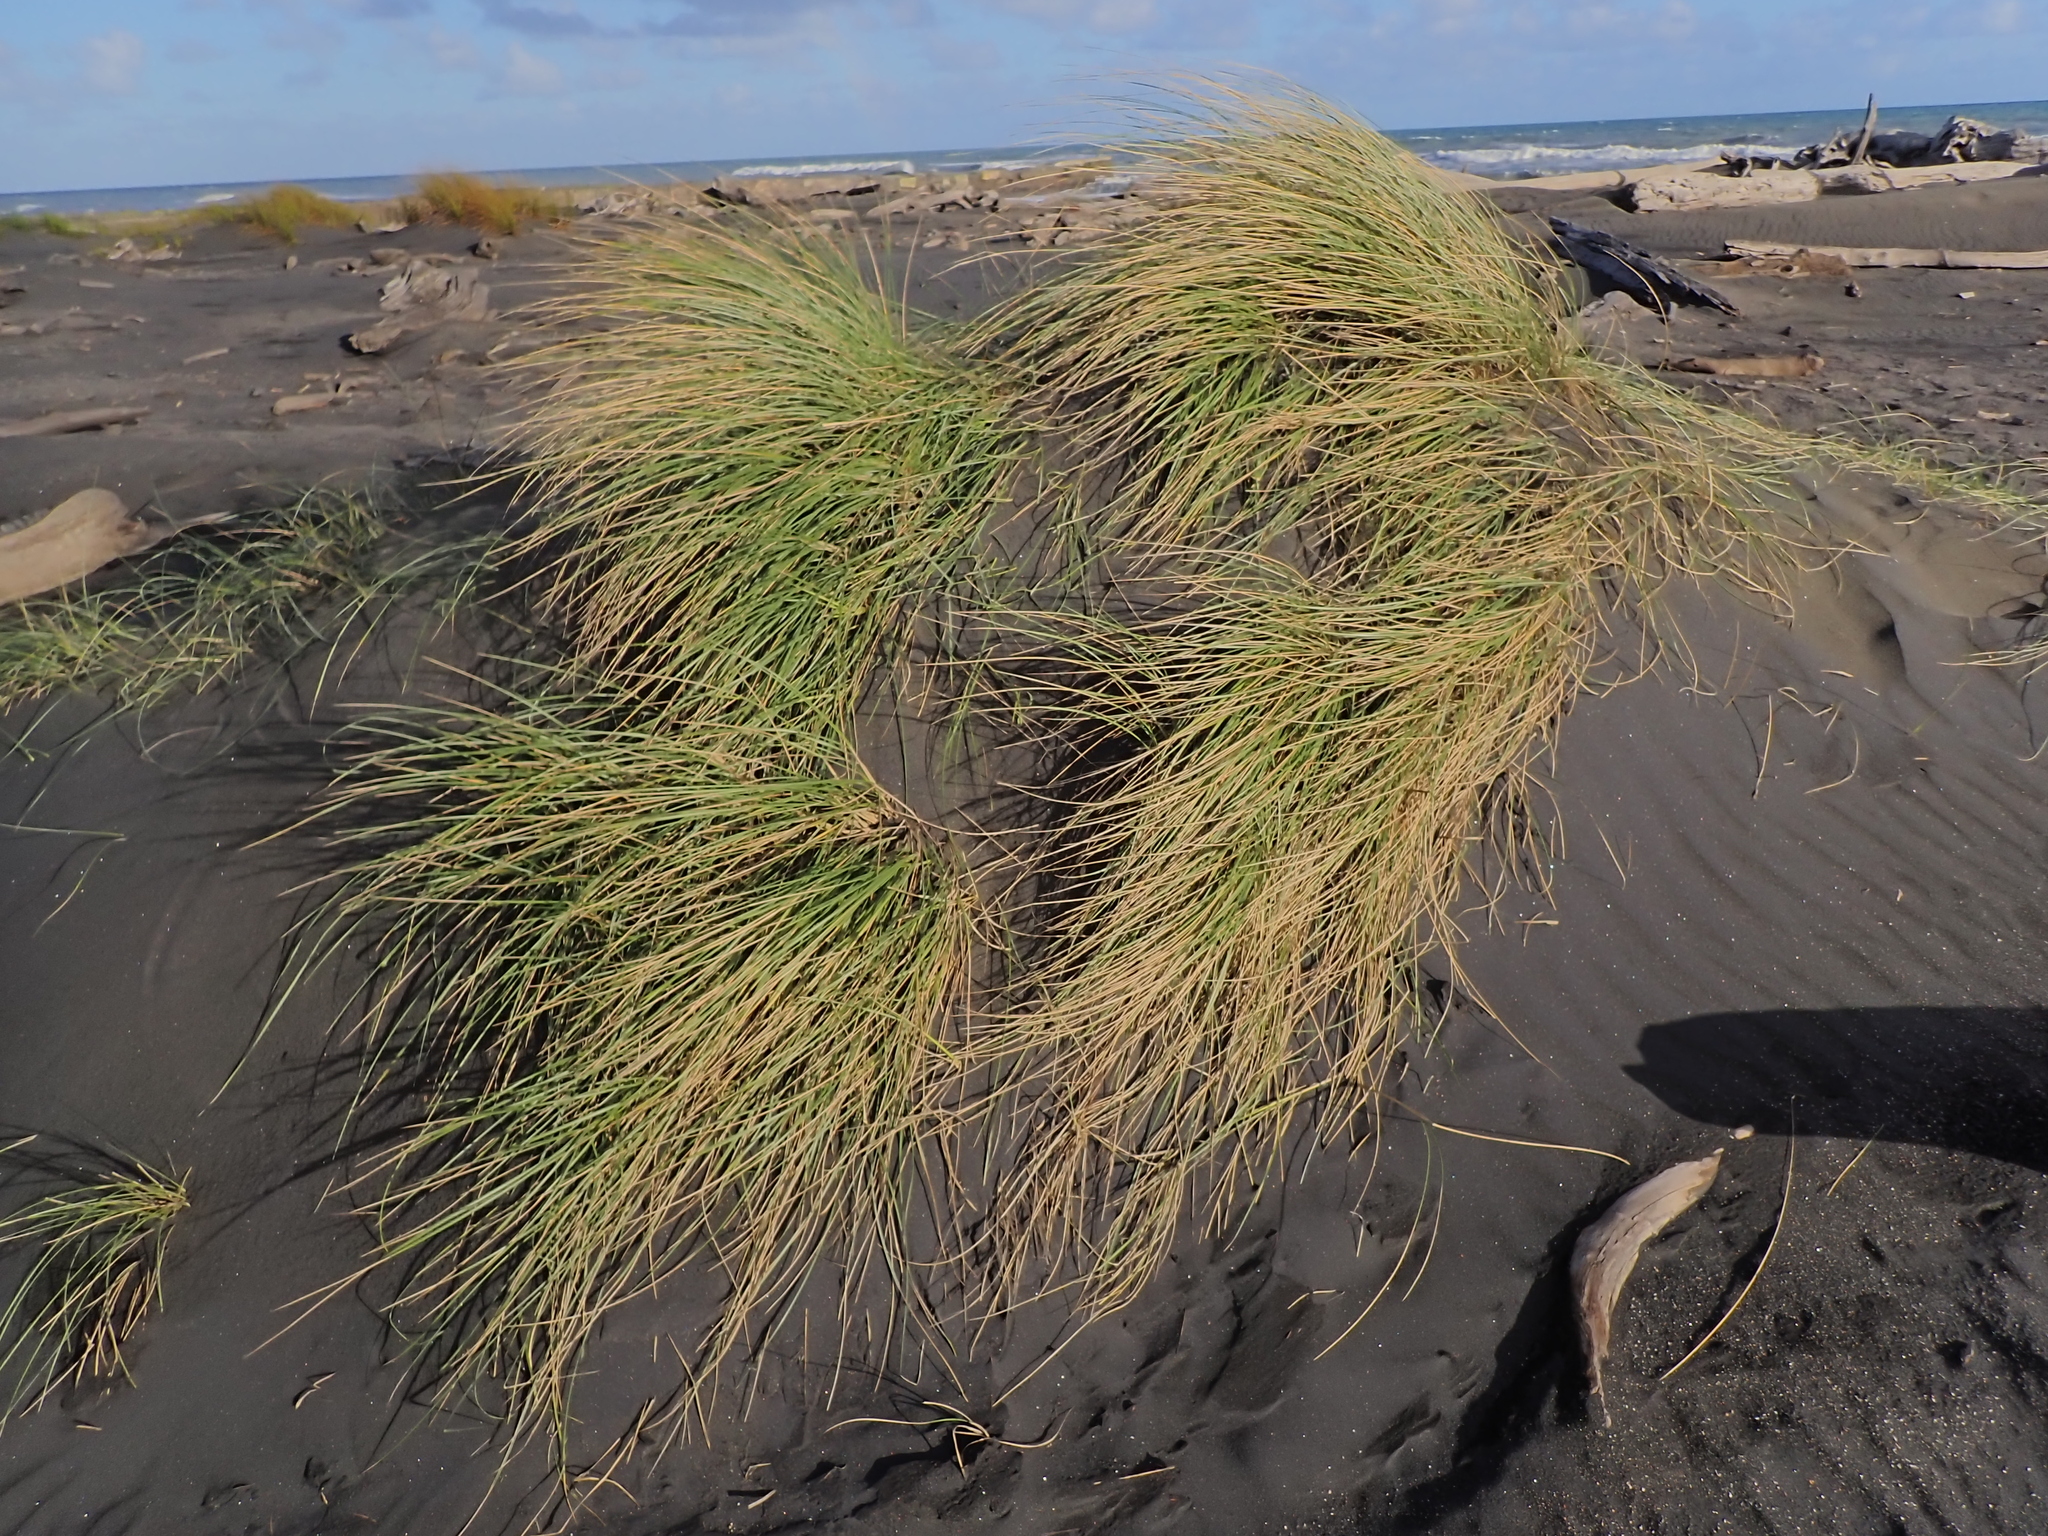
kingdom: Plantae
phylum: Tracheophyta
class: Liliopsida
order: Poales
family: Poaceae
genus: Calamagrostis
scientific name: Calamagrostis arenaria
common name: European beachgrass
